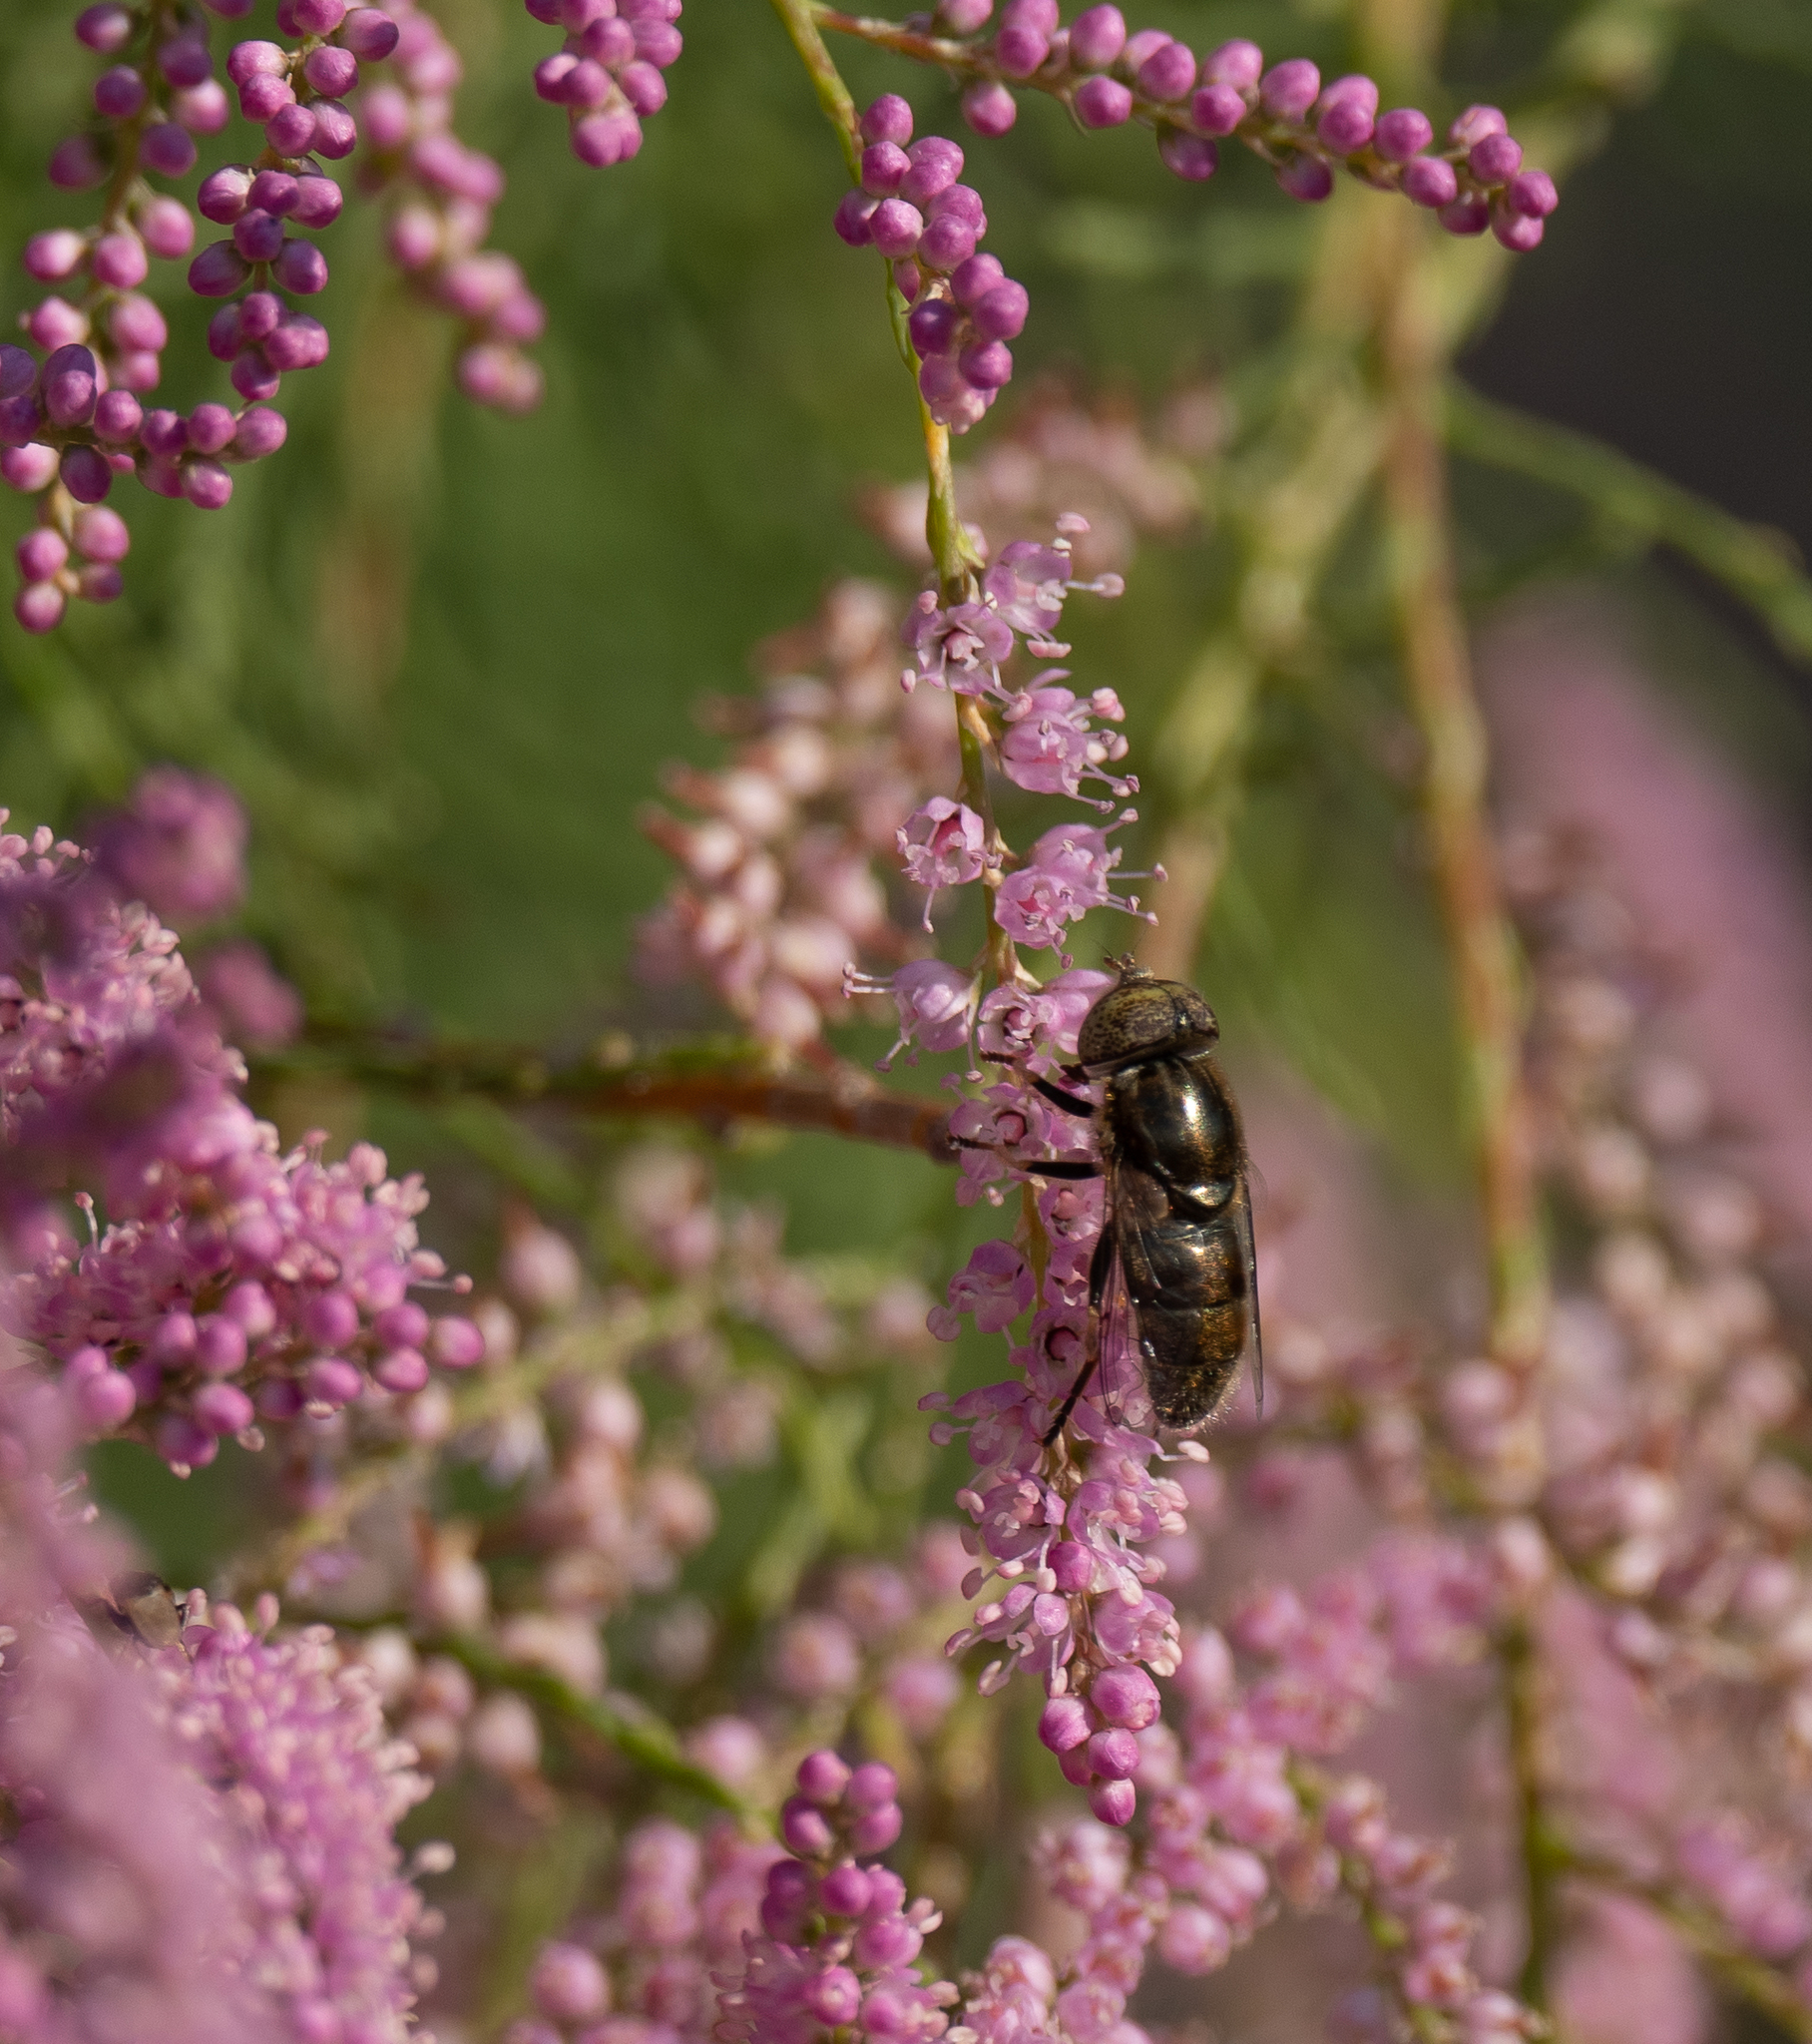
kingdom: Animalia
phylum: Arthropoda
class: Insecta
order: Diptera
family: Syrphidae
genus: Eristalinus
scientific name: Eristalinus aeneus
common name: Syrphid fly
